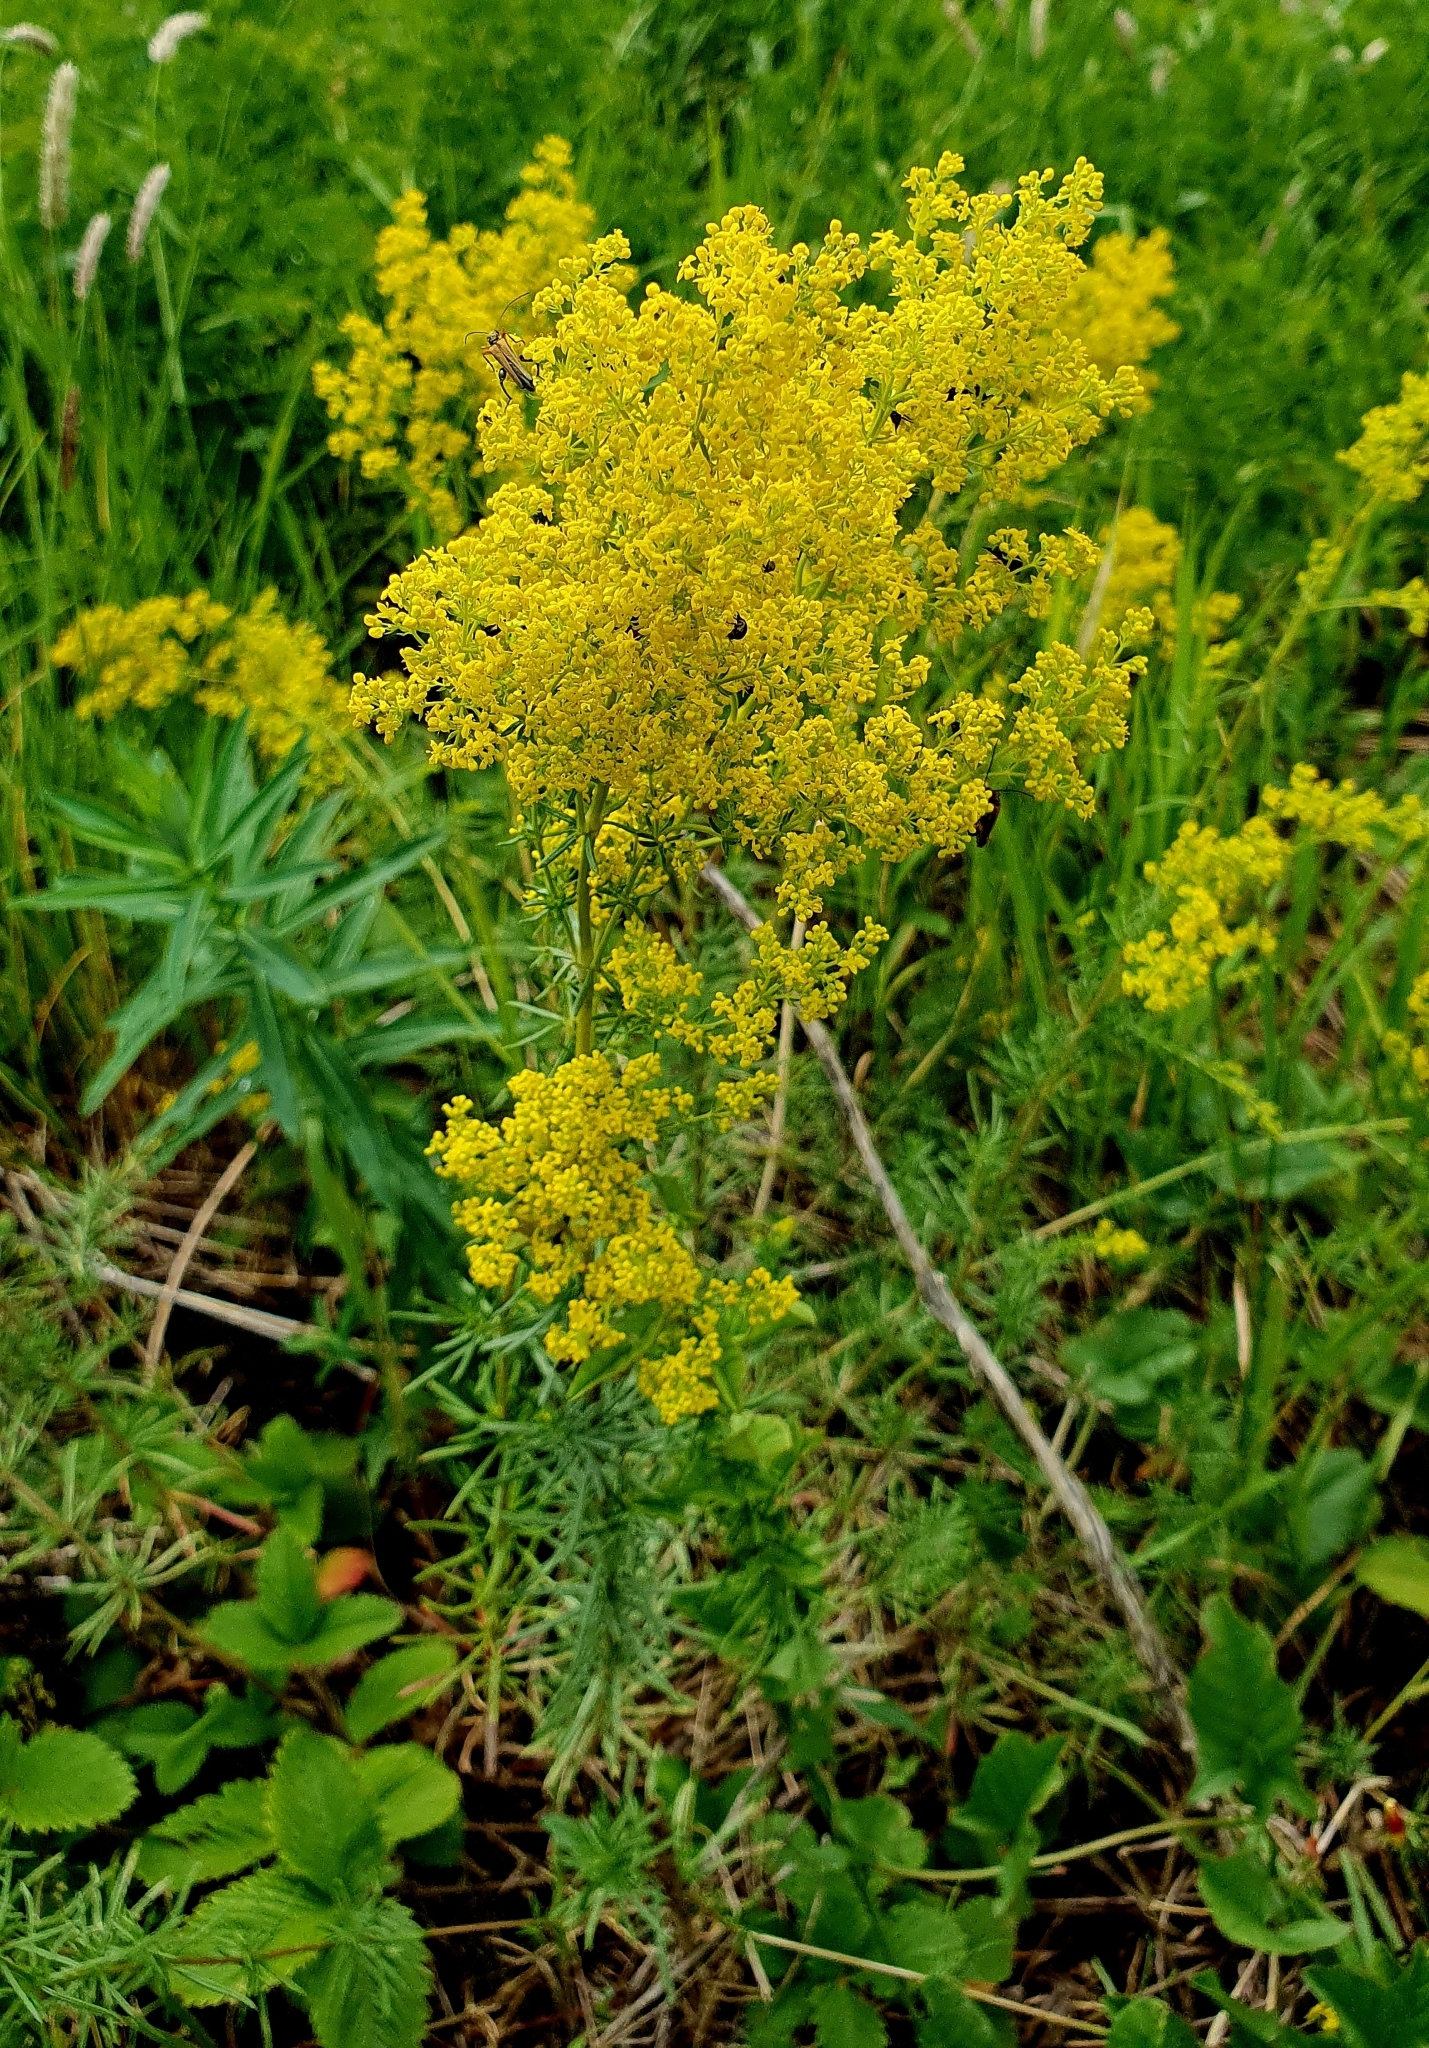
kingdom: Plantae
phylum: Tracheophyta
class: Magnoliopsida
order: Gentianales
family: Rubiaceae
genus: Galium
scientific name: Galium verum
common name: Lady's bedstraw
